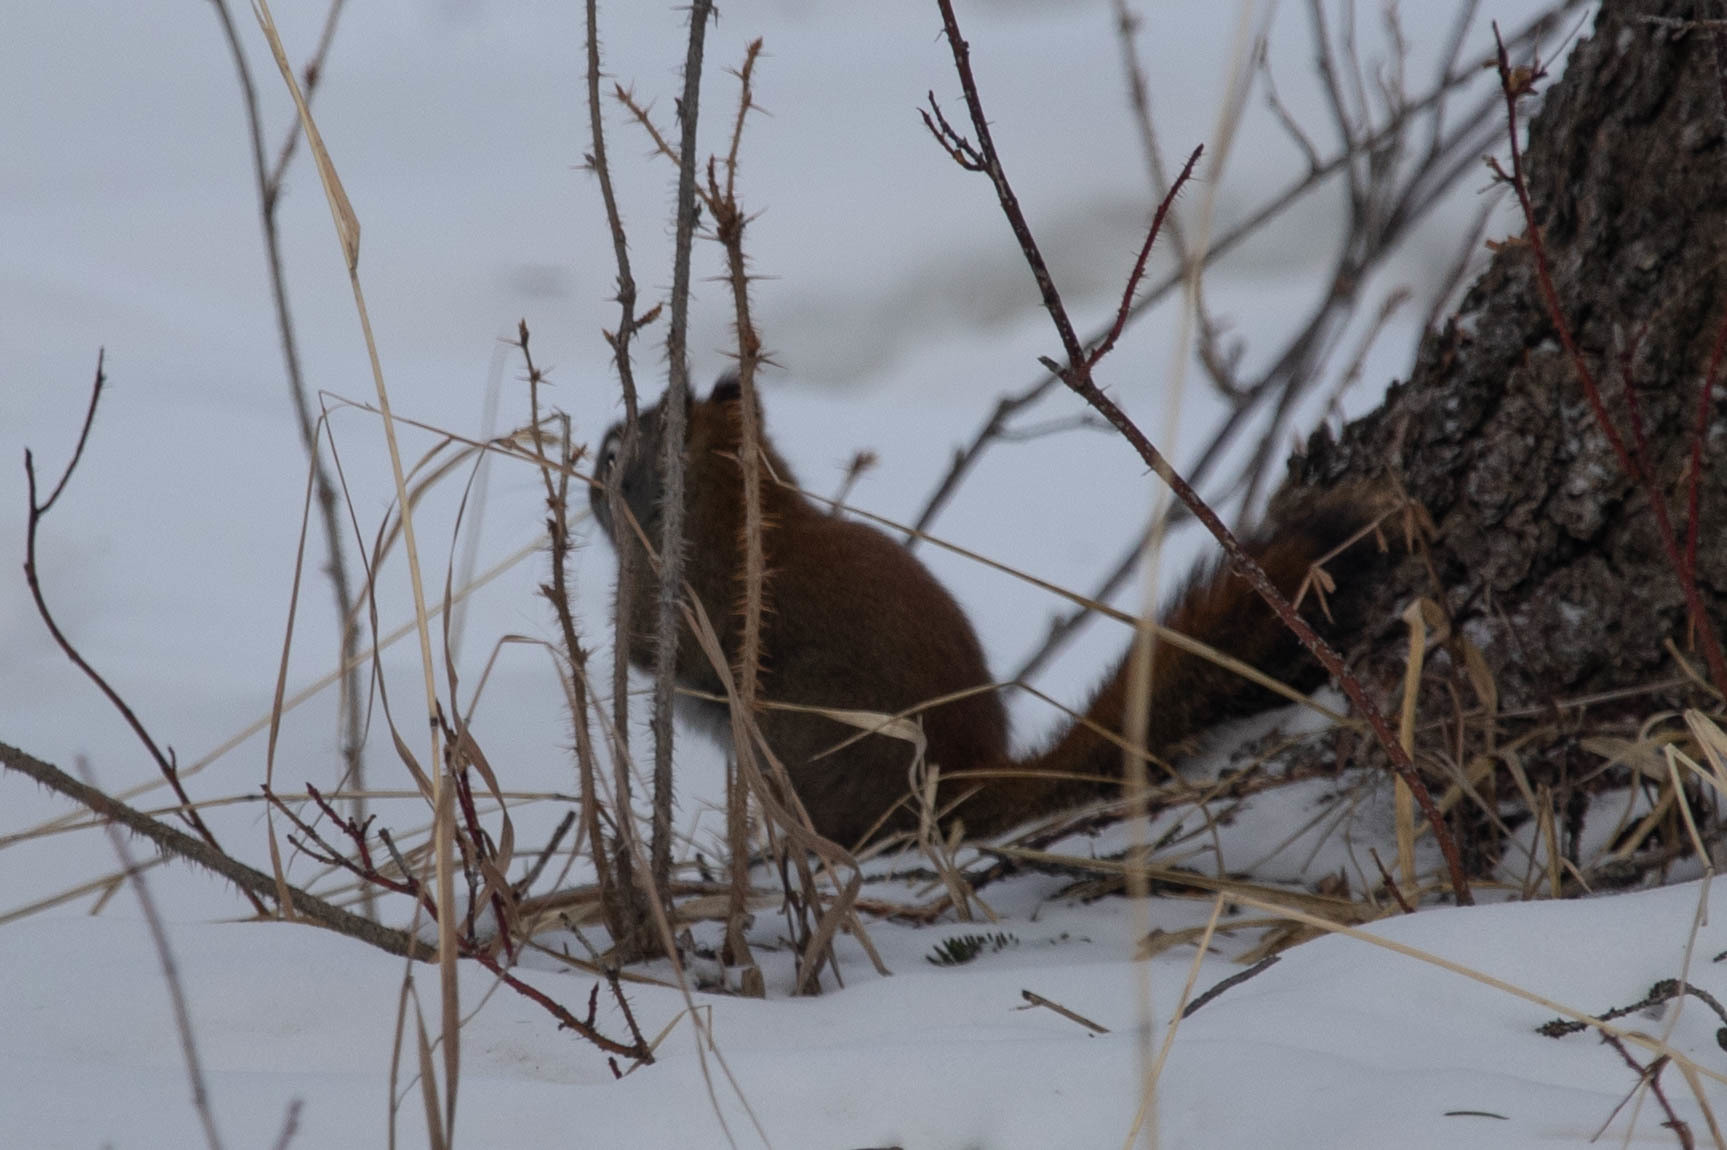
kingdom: Animalia
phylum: Chordata
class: Mammalia
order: Rodentia
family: Sciuridae
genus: Tamiasciurus
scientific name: Tamiasciurus hudsonicus
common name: Red squirrel
